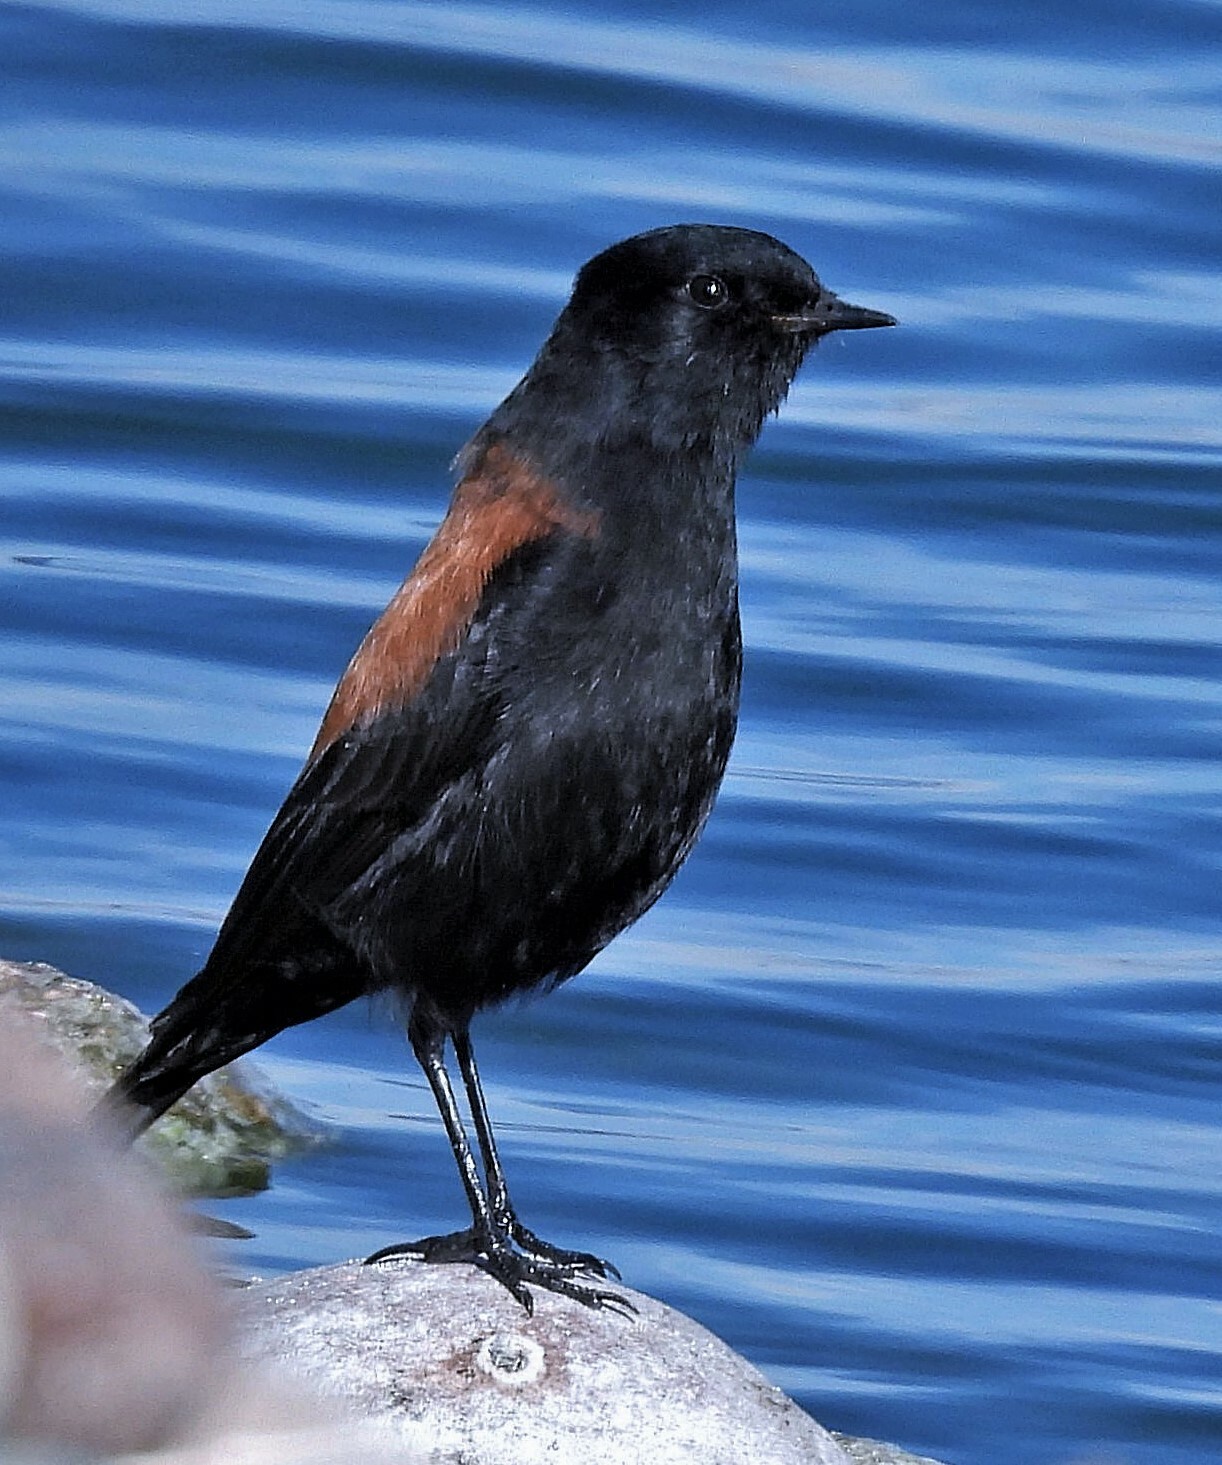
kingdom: Animalia
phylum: Chordata
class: Aves
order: Passeriformes
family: Tyrannidae
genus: Lessonia
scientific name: Lessonia rufa
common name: Austral negrito
